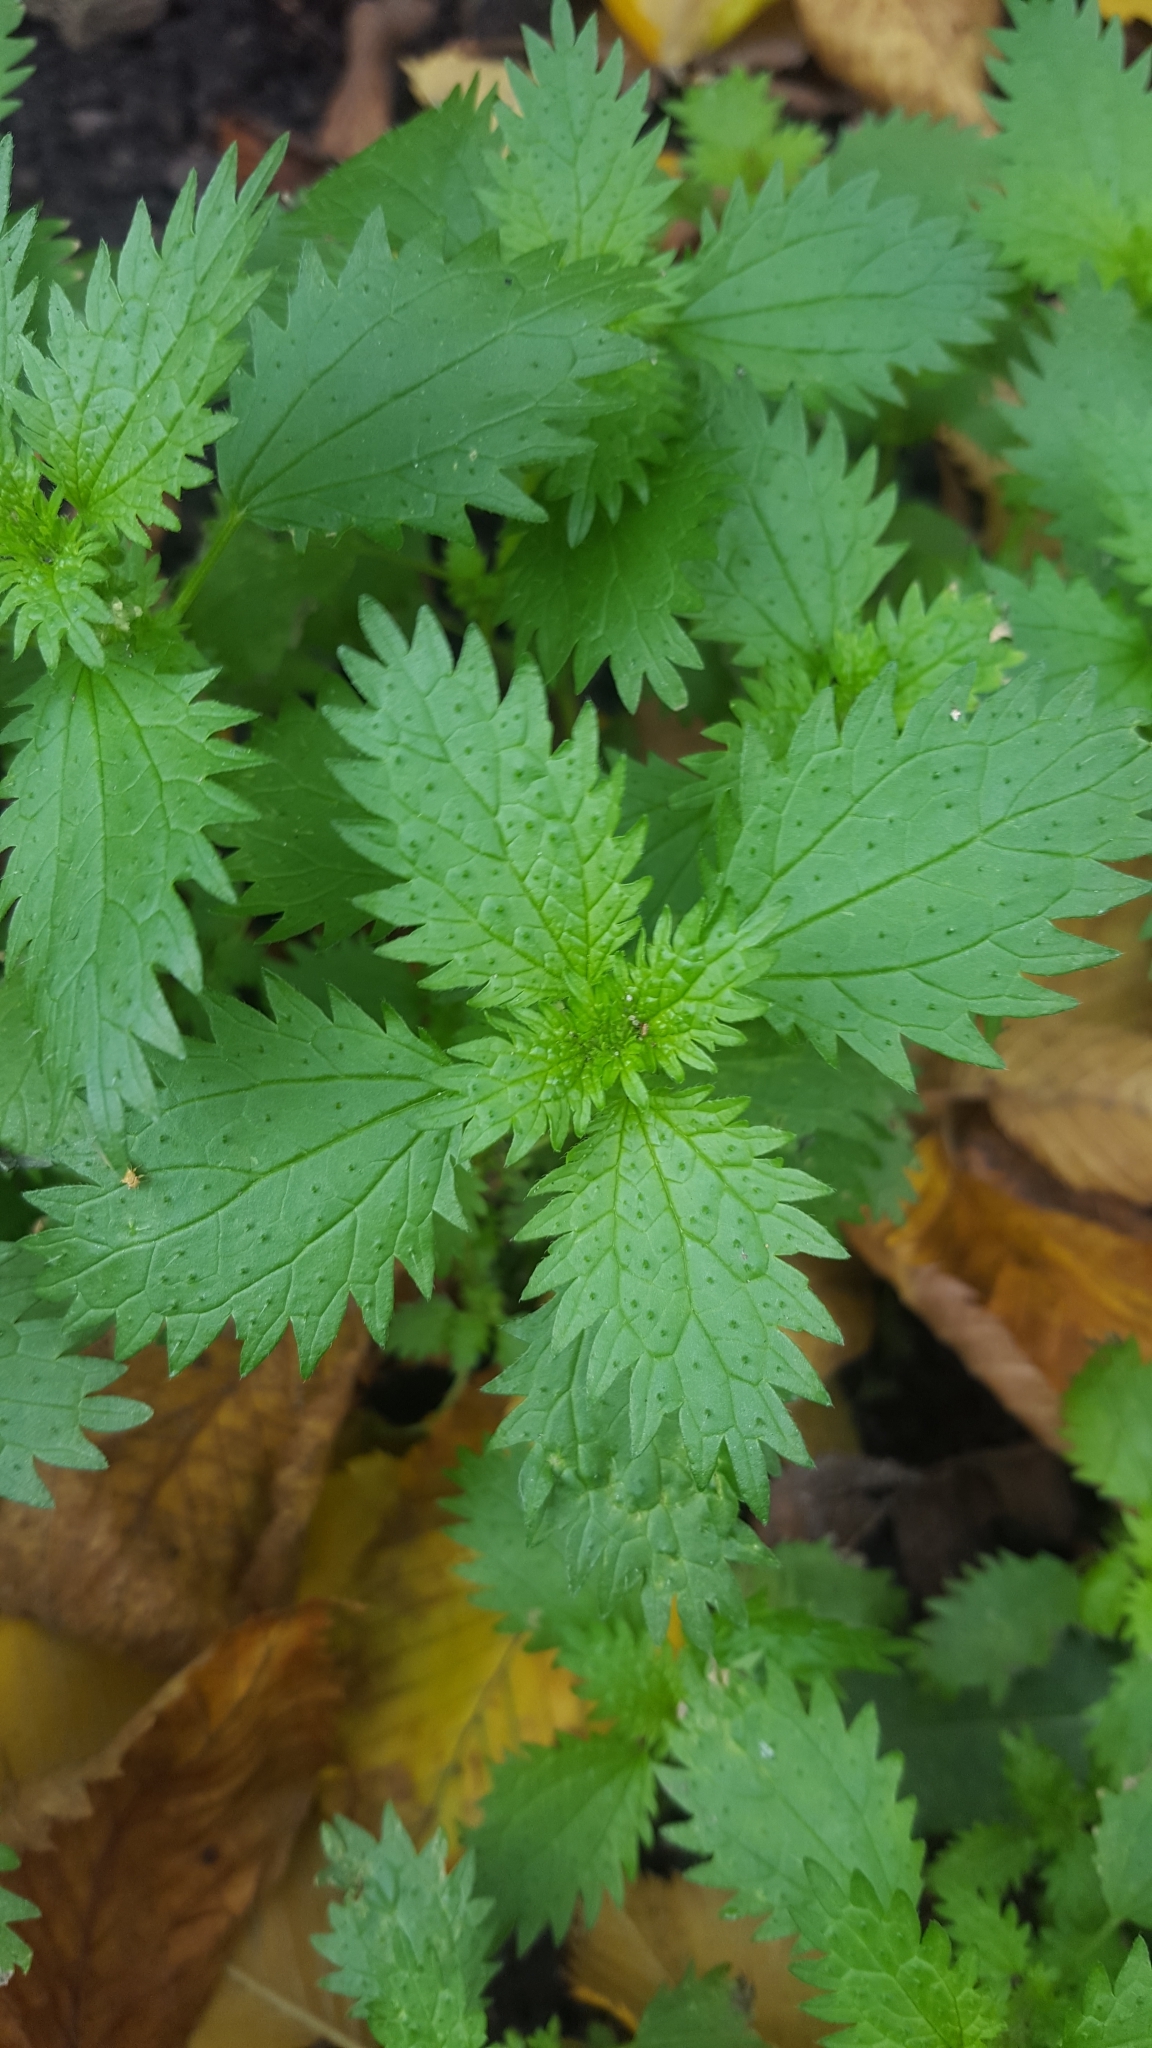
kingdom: Plantae
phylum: Tracheophyta
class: Magnoliopsida
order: Rosales
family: Urticaceae
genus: Urtica
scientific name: Urtica urens
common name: Dwarf nettle
